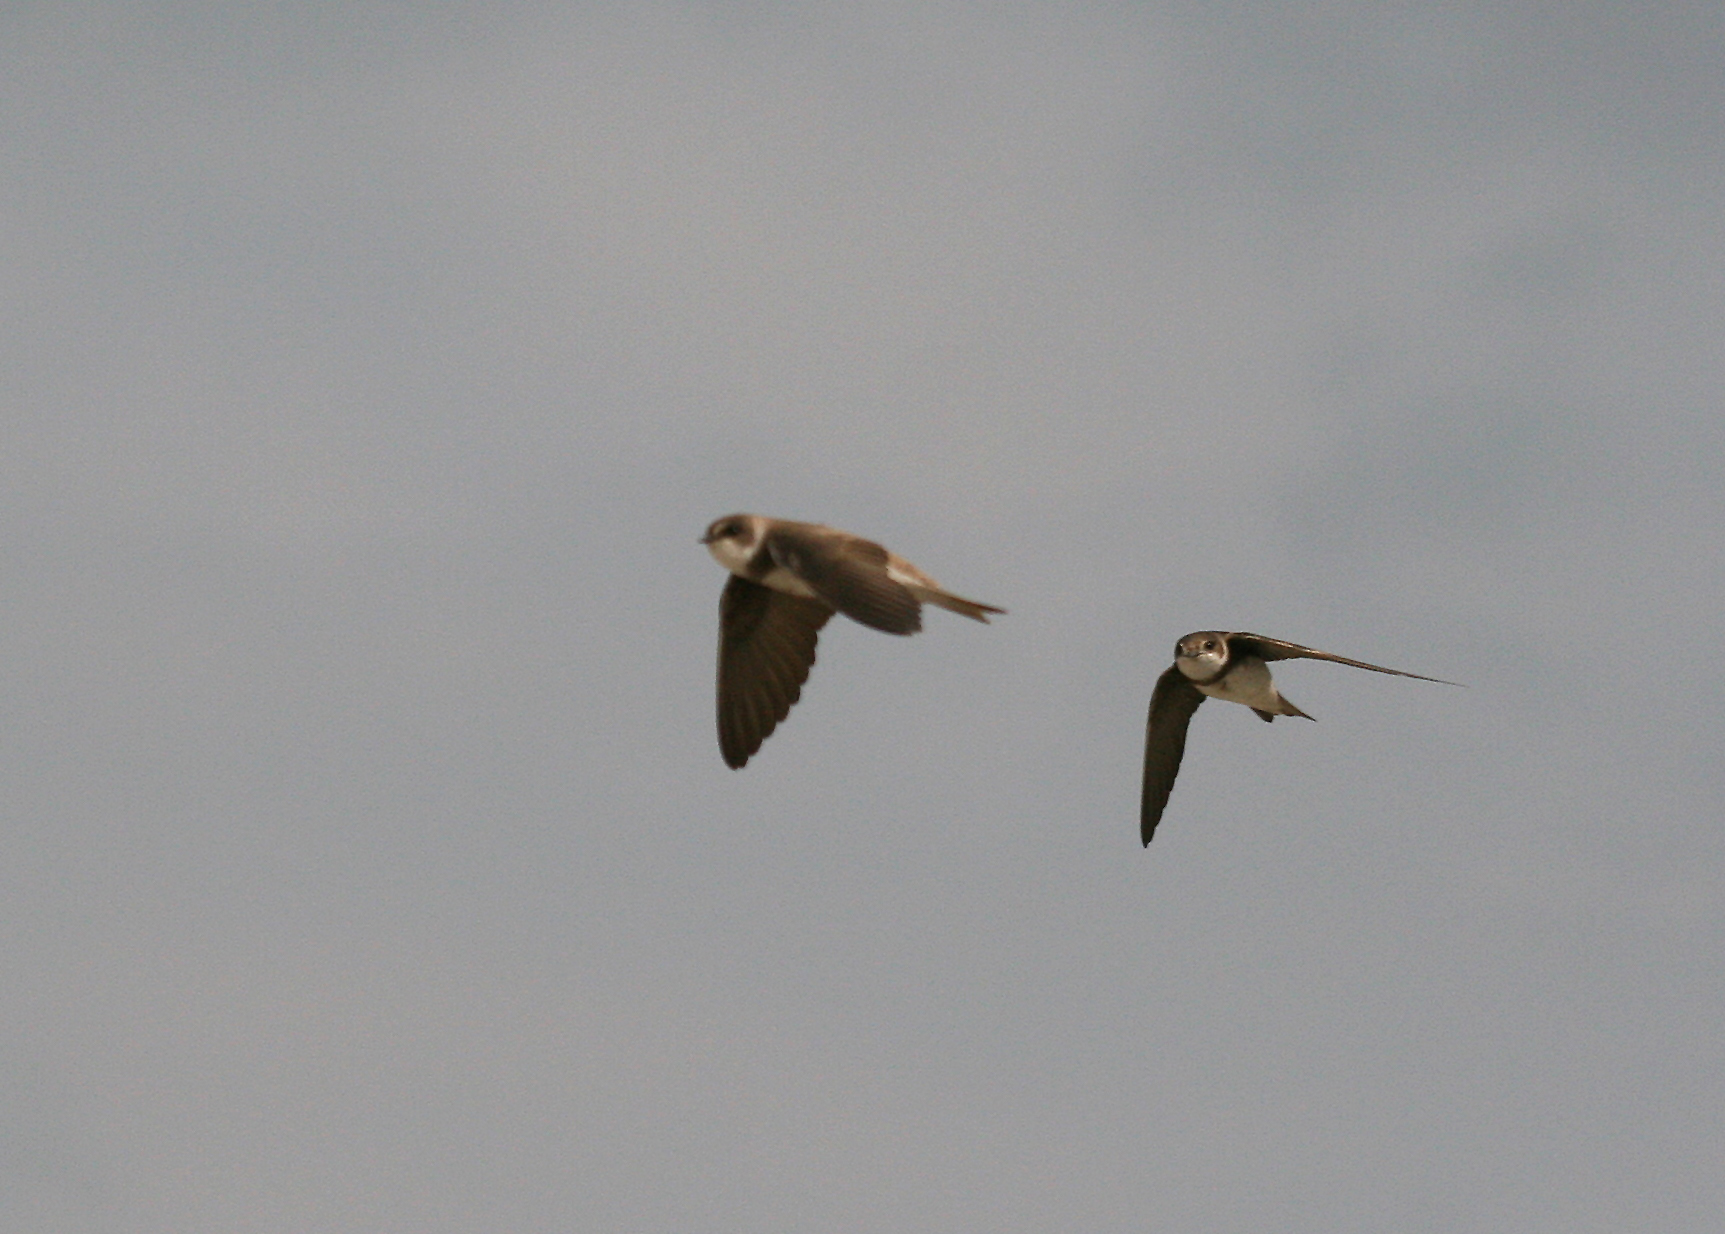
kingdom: Animalia
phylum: Chordata
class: Aves
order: Passeriformes
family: Hirundinidae
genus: Riparia
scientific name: Riparia riparia
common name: Sand martin
